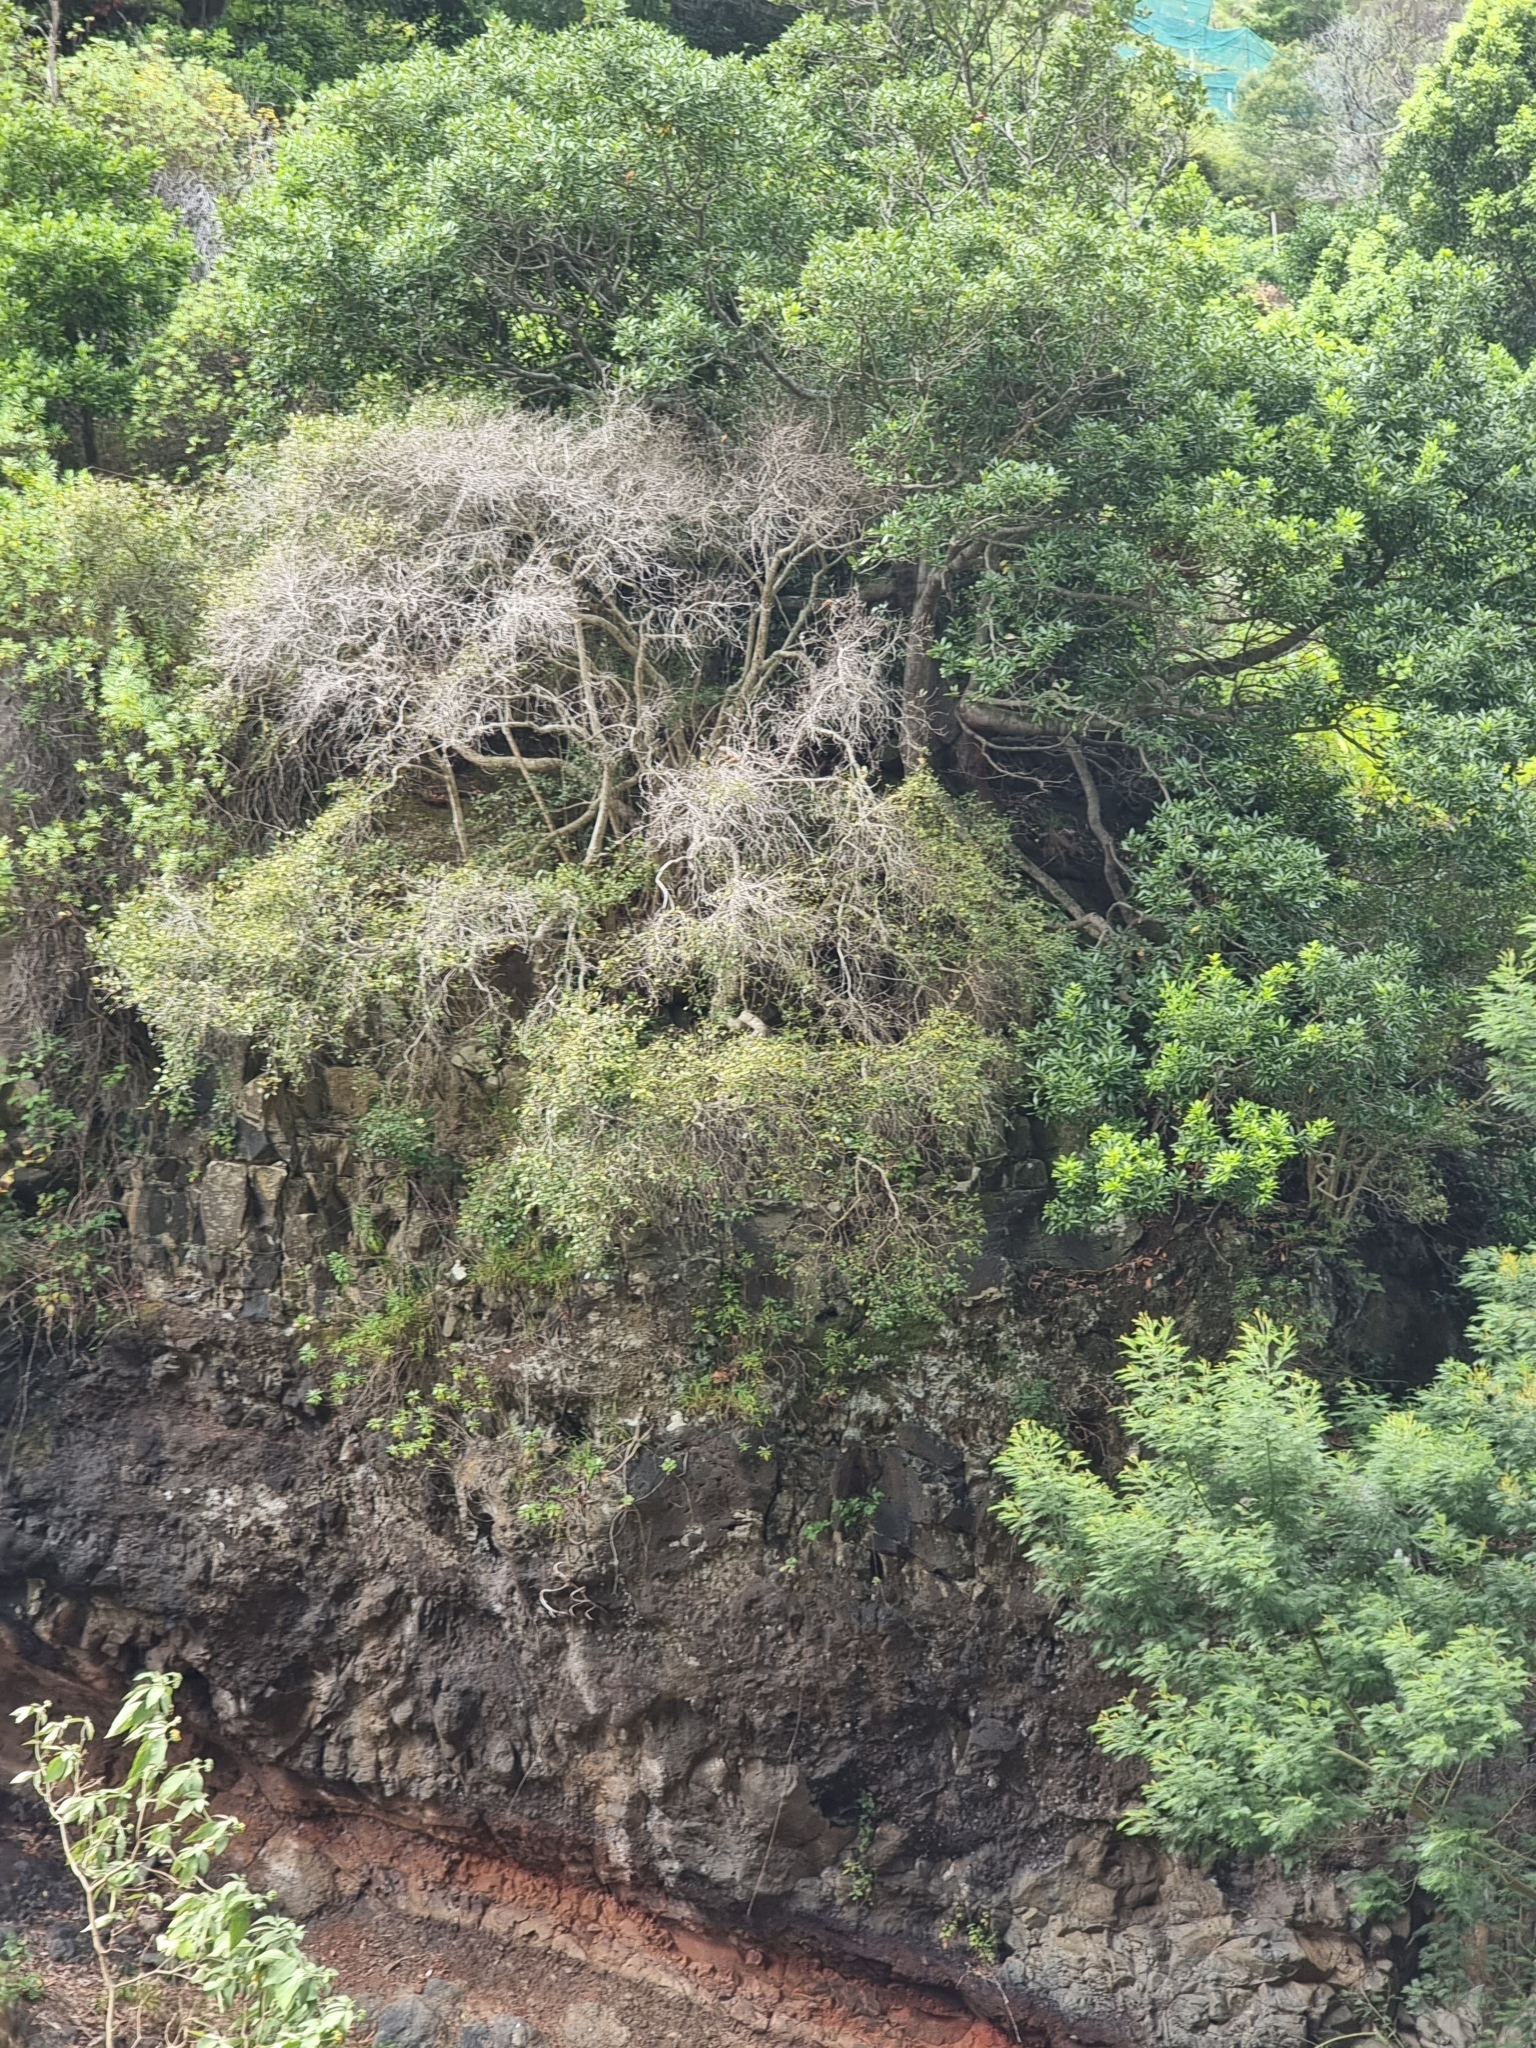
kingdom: Plantae
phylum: Tracheophyta
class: Magnoliopsida
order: Celastrales
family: Celastraceae
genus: Gymnosporia
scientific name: Gymnosporia dryandri
